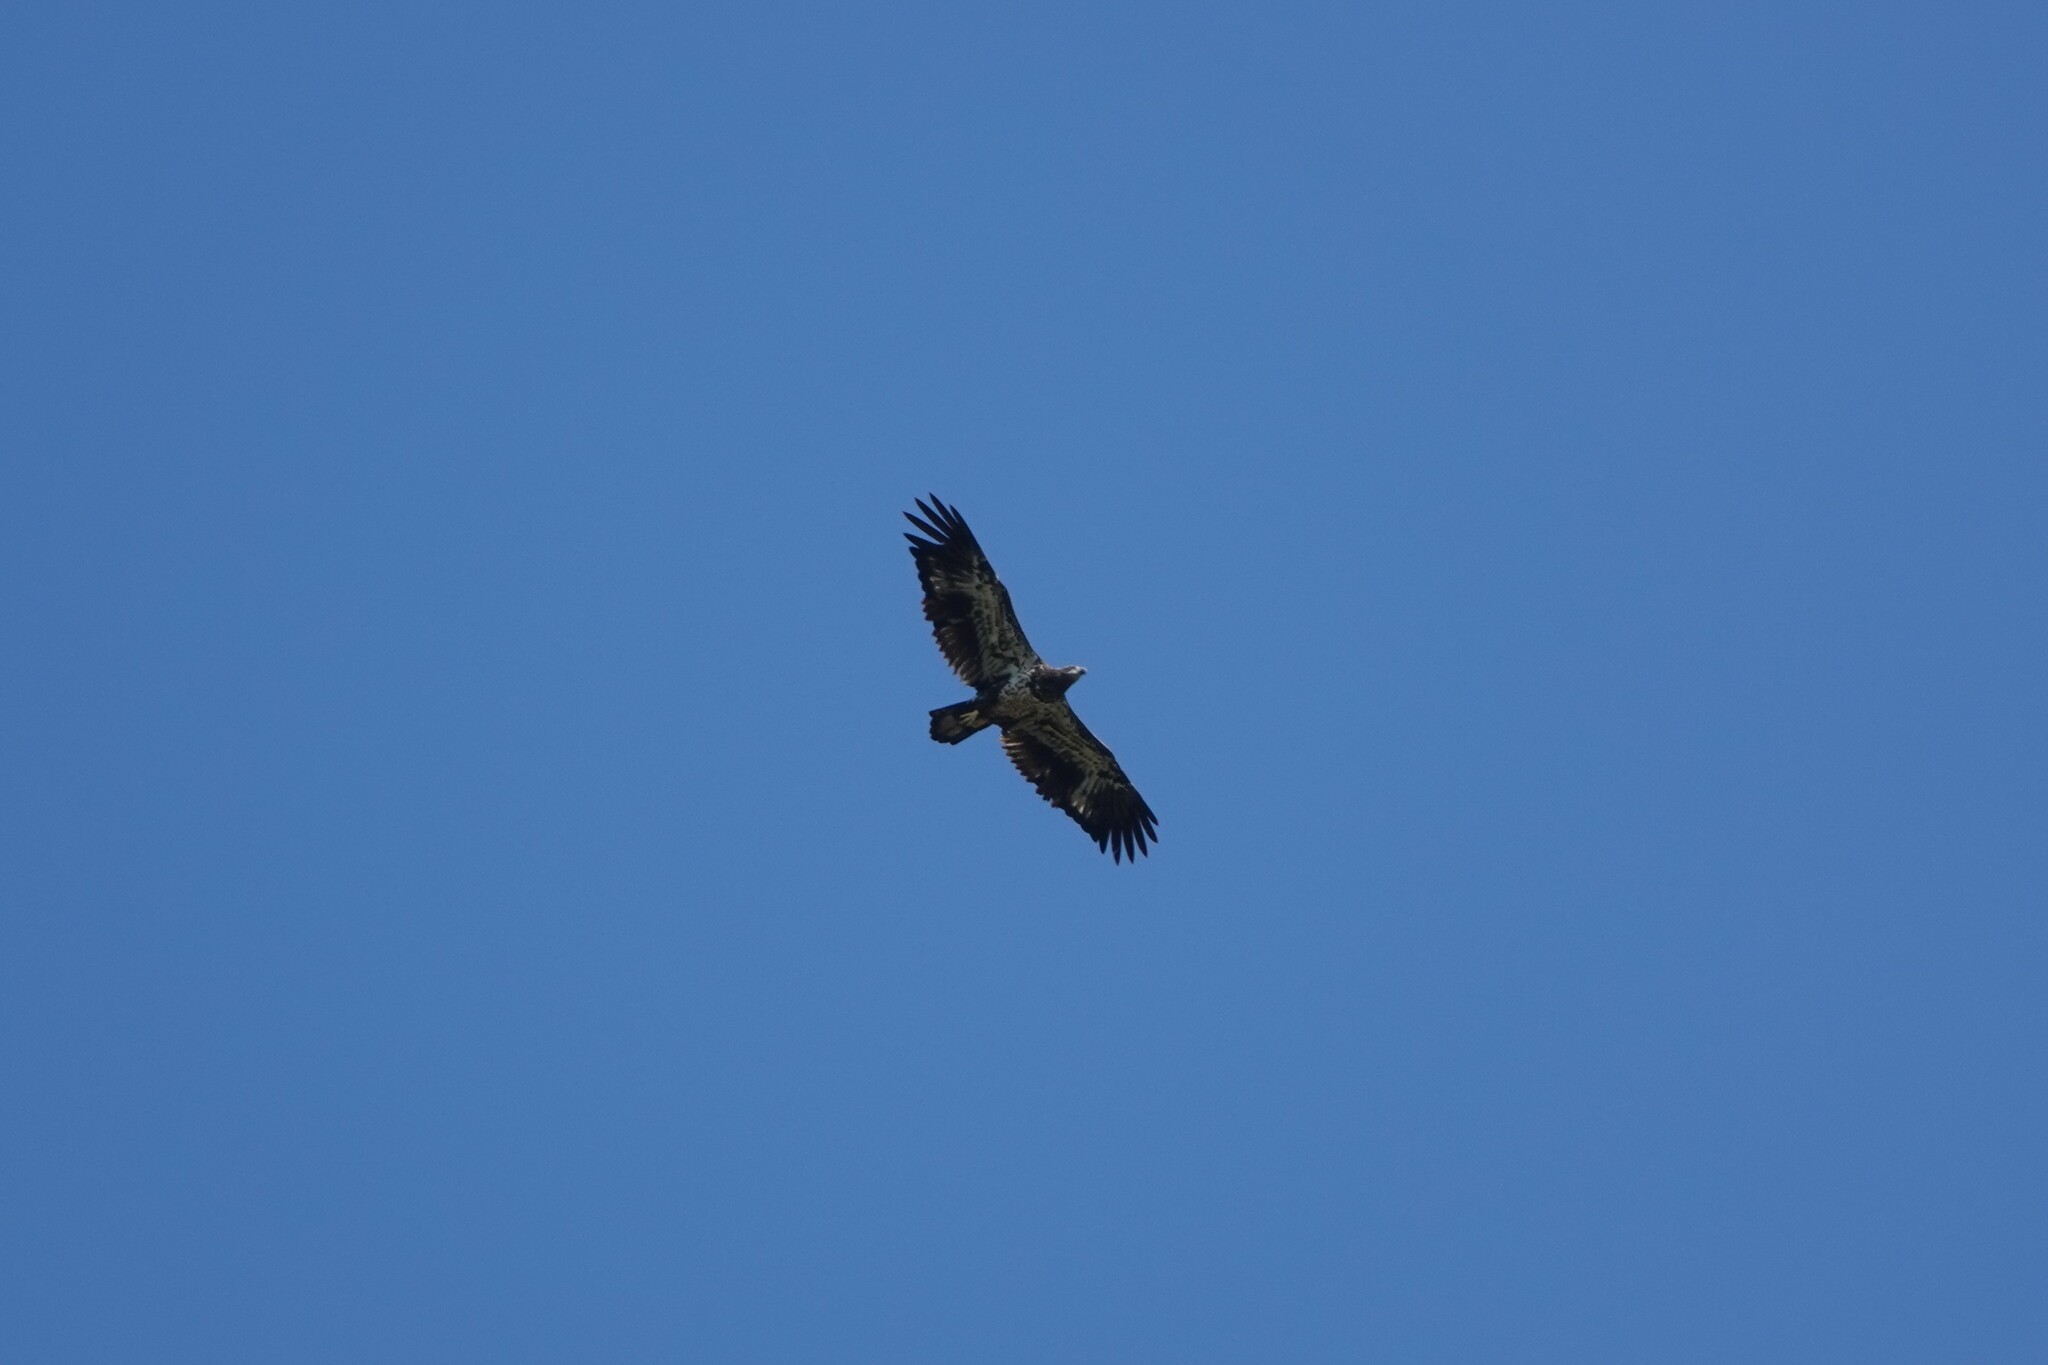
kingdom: Animalia
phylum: Chordata
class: Aves
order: Accipitriformes
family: Accipitridae
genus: Haliaeetus
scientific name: Haliaeetus leucocephalus
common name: Bald eagle
